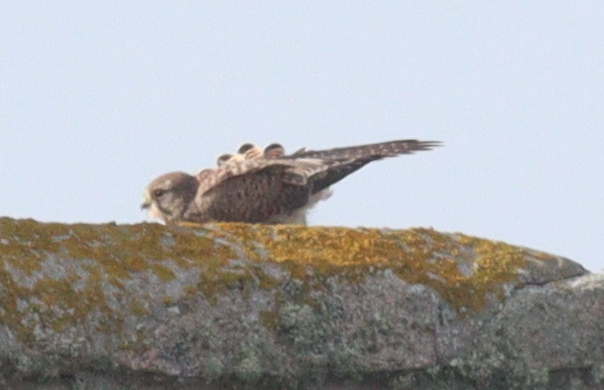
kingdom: Animalia
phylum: Chordata
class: Aves
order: Falconiformes
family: Falconidae
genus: Falco
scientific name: Falco tinnunculus
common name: Common kestrel
